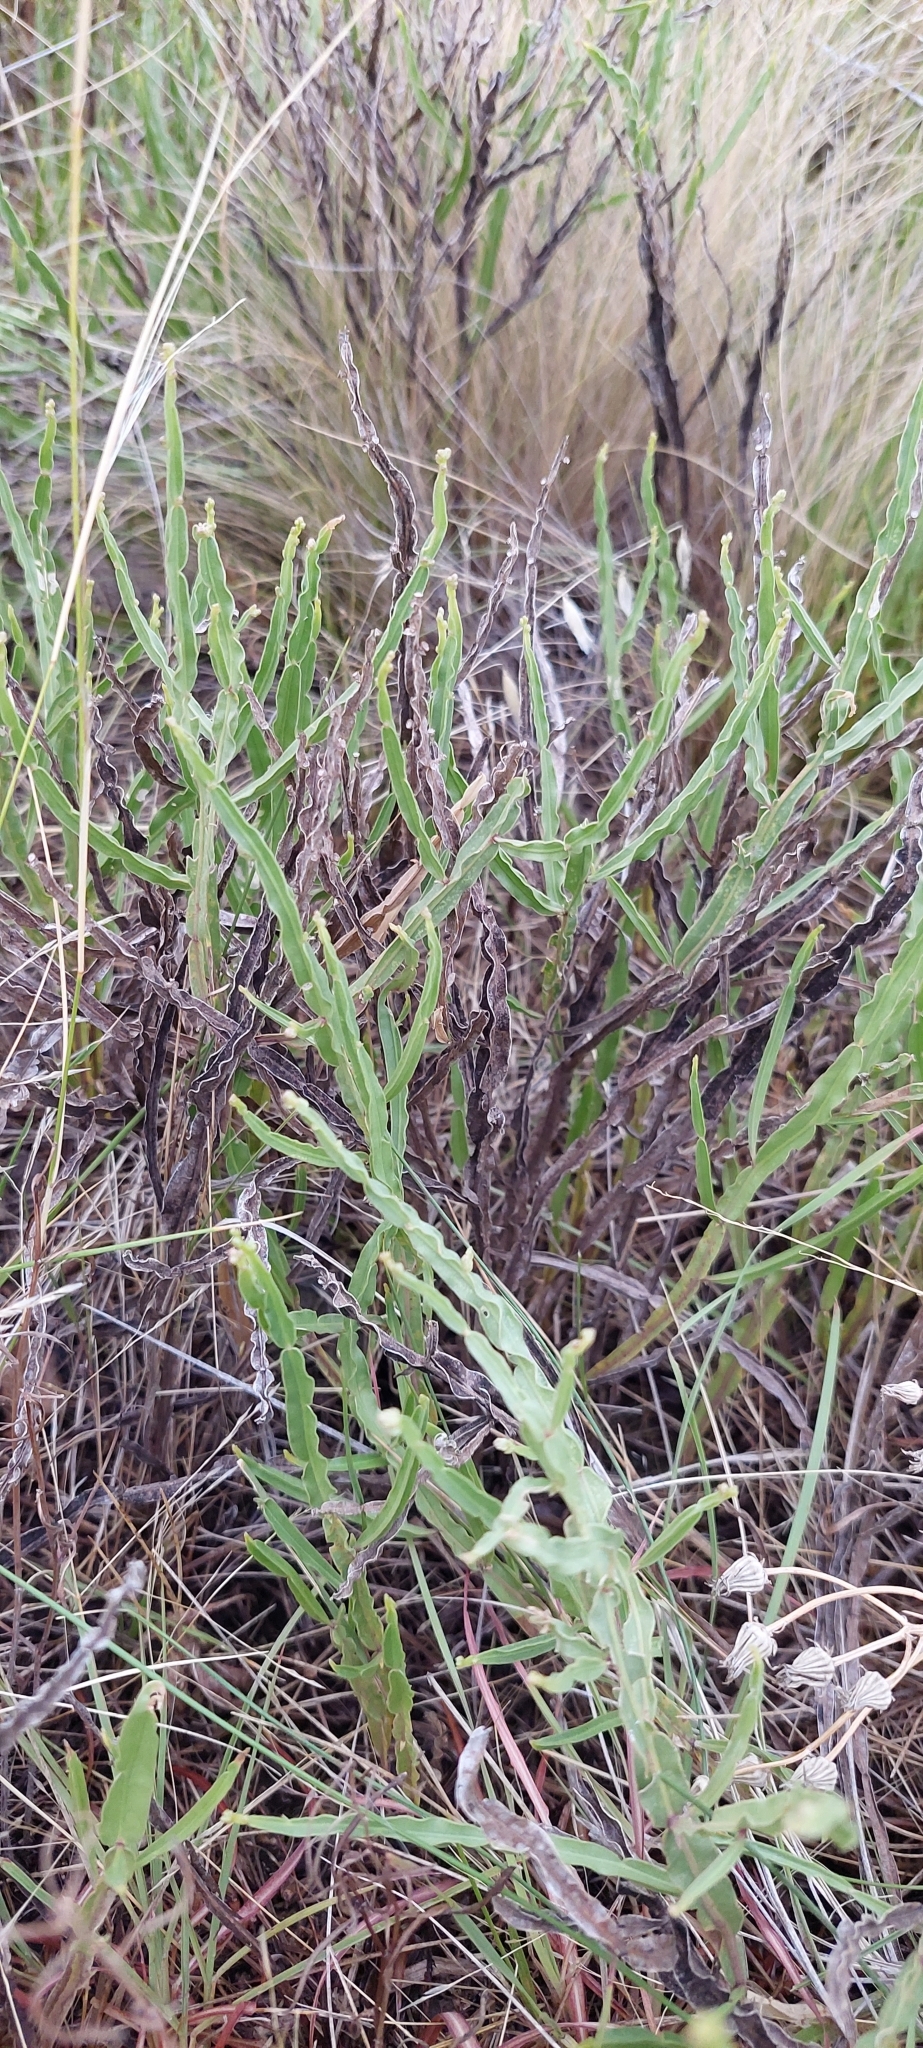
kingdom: Plantae
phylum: Tracheophyta
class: Magnoliopsida
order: Asterales
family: Asteraceae
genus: Baccharis
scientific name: Baccharis crispa
